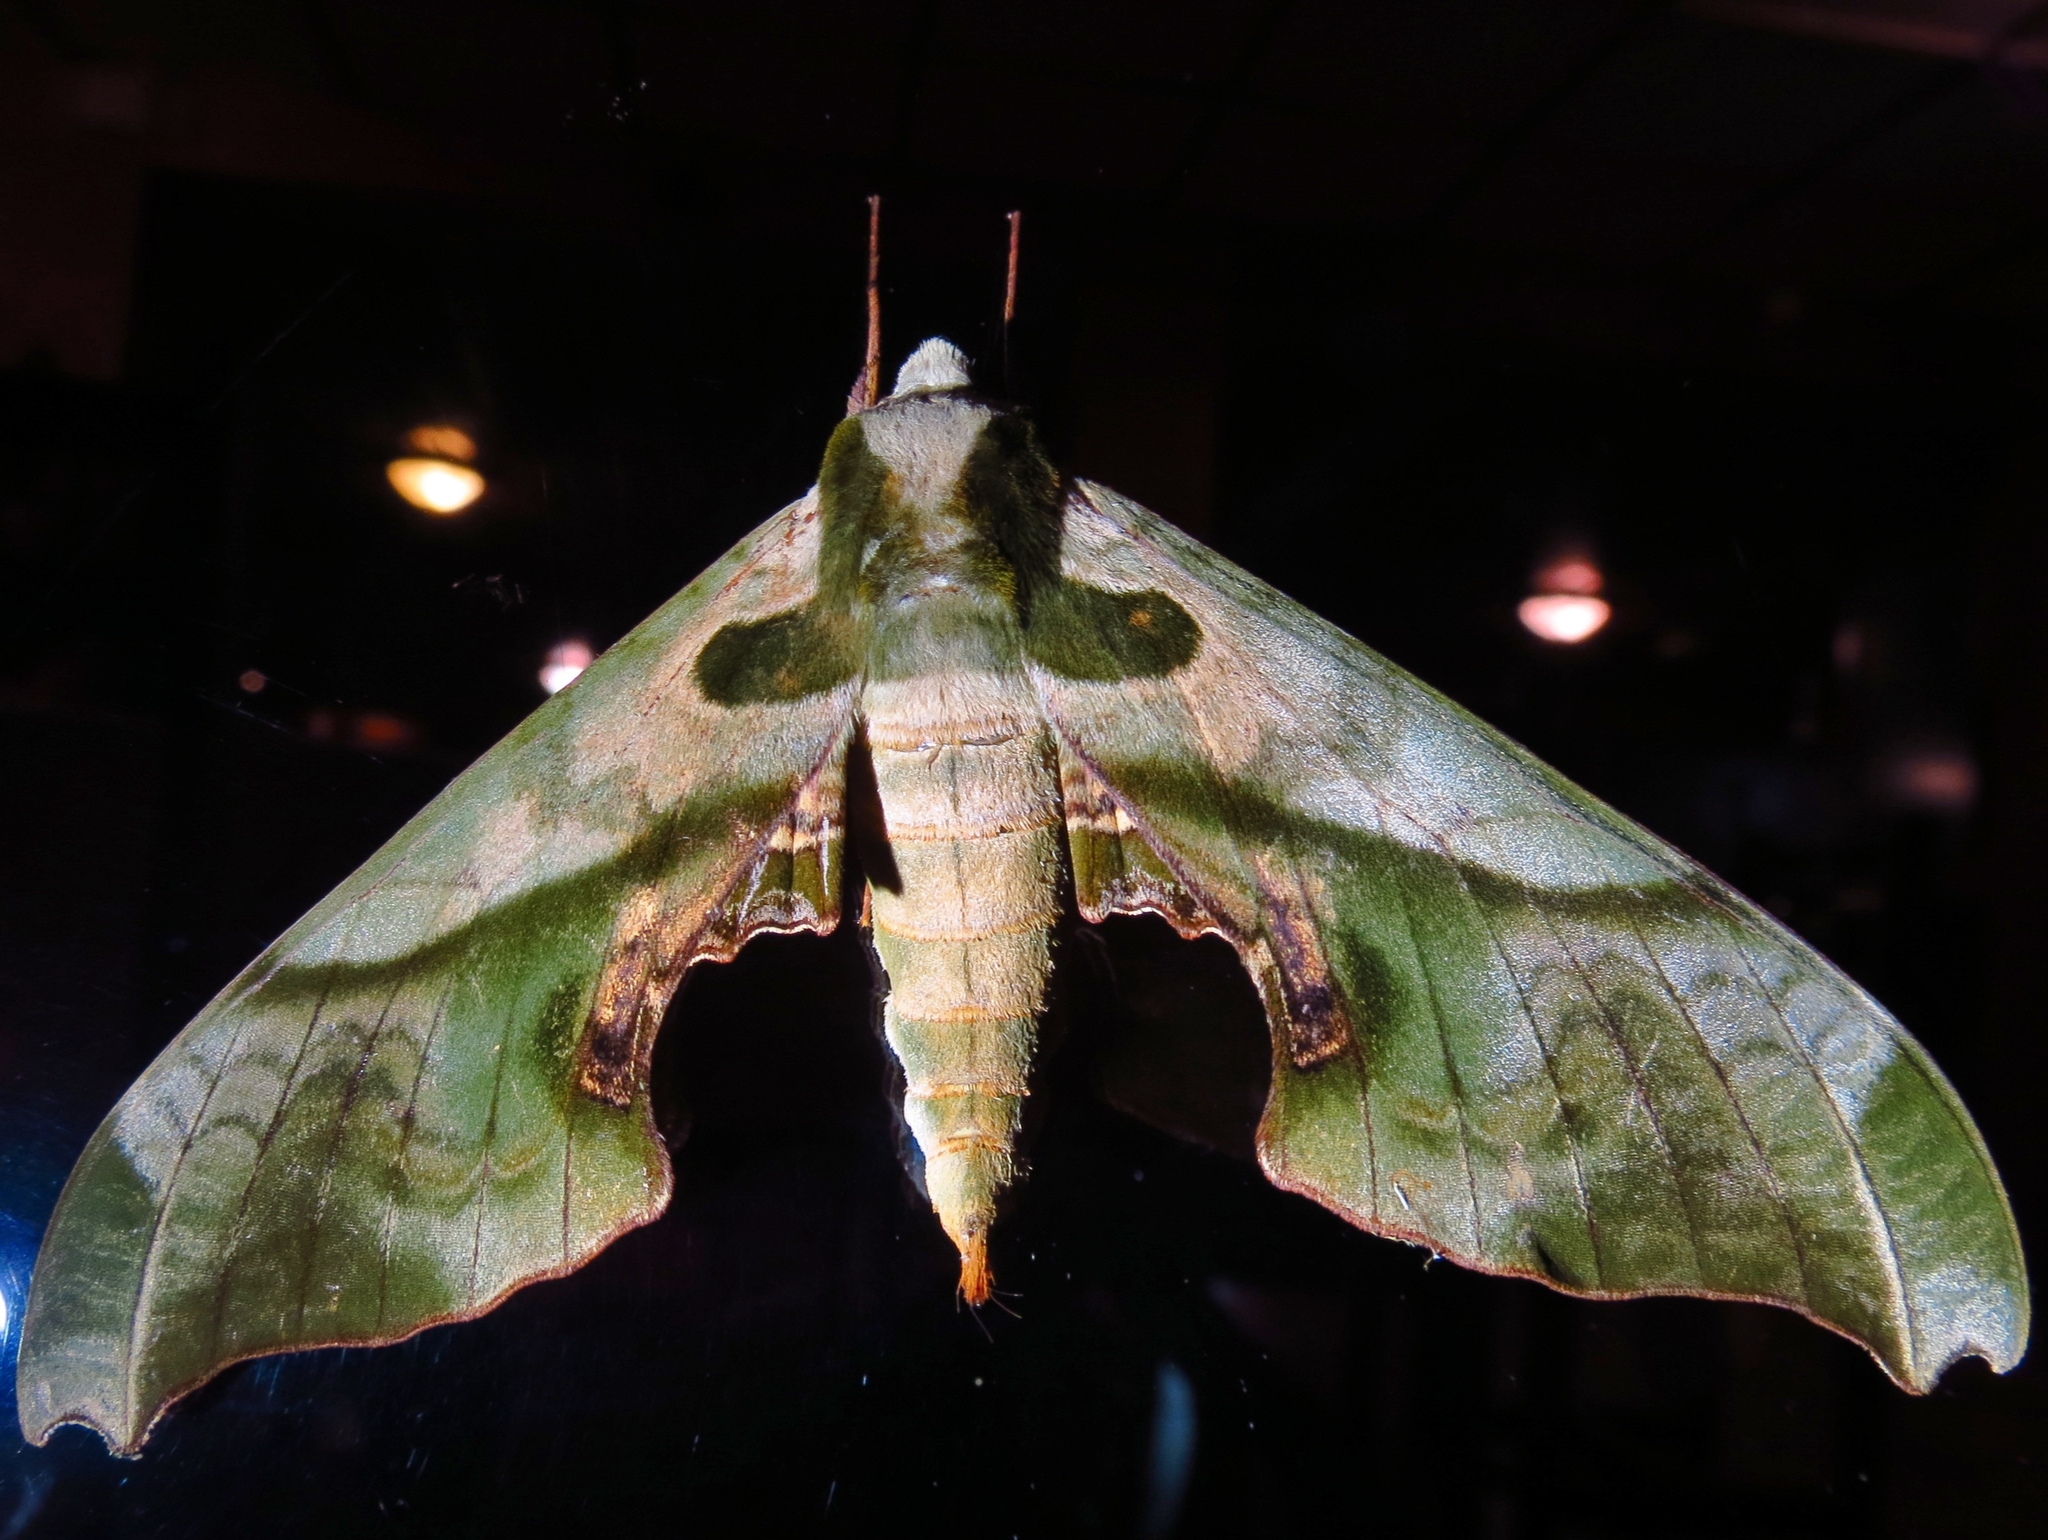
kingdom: Animalia
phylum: Arthropoda
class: Insecta
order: Lepidoptera
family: Sphingidae
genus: Adhemarius
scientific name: Adhemarius dariensis
